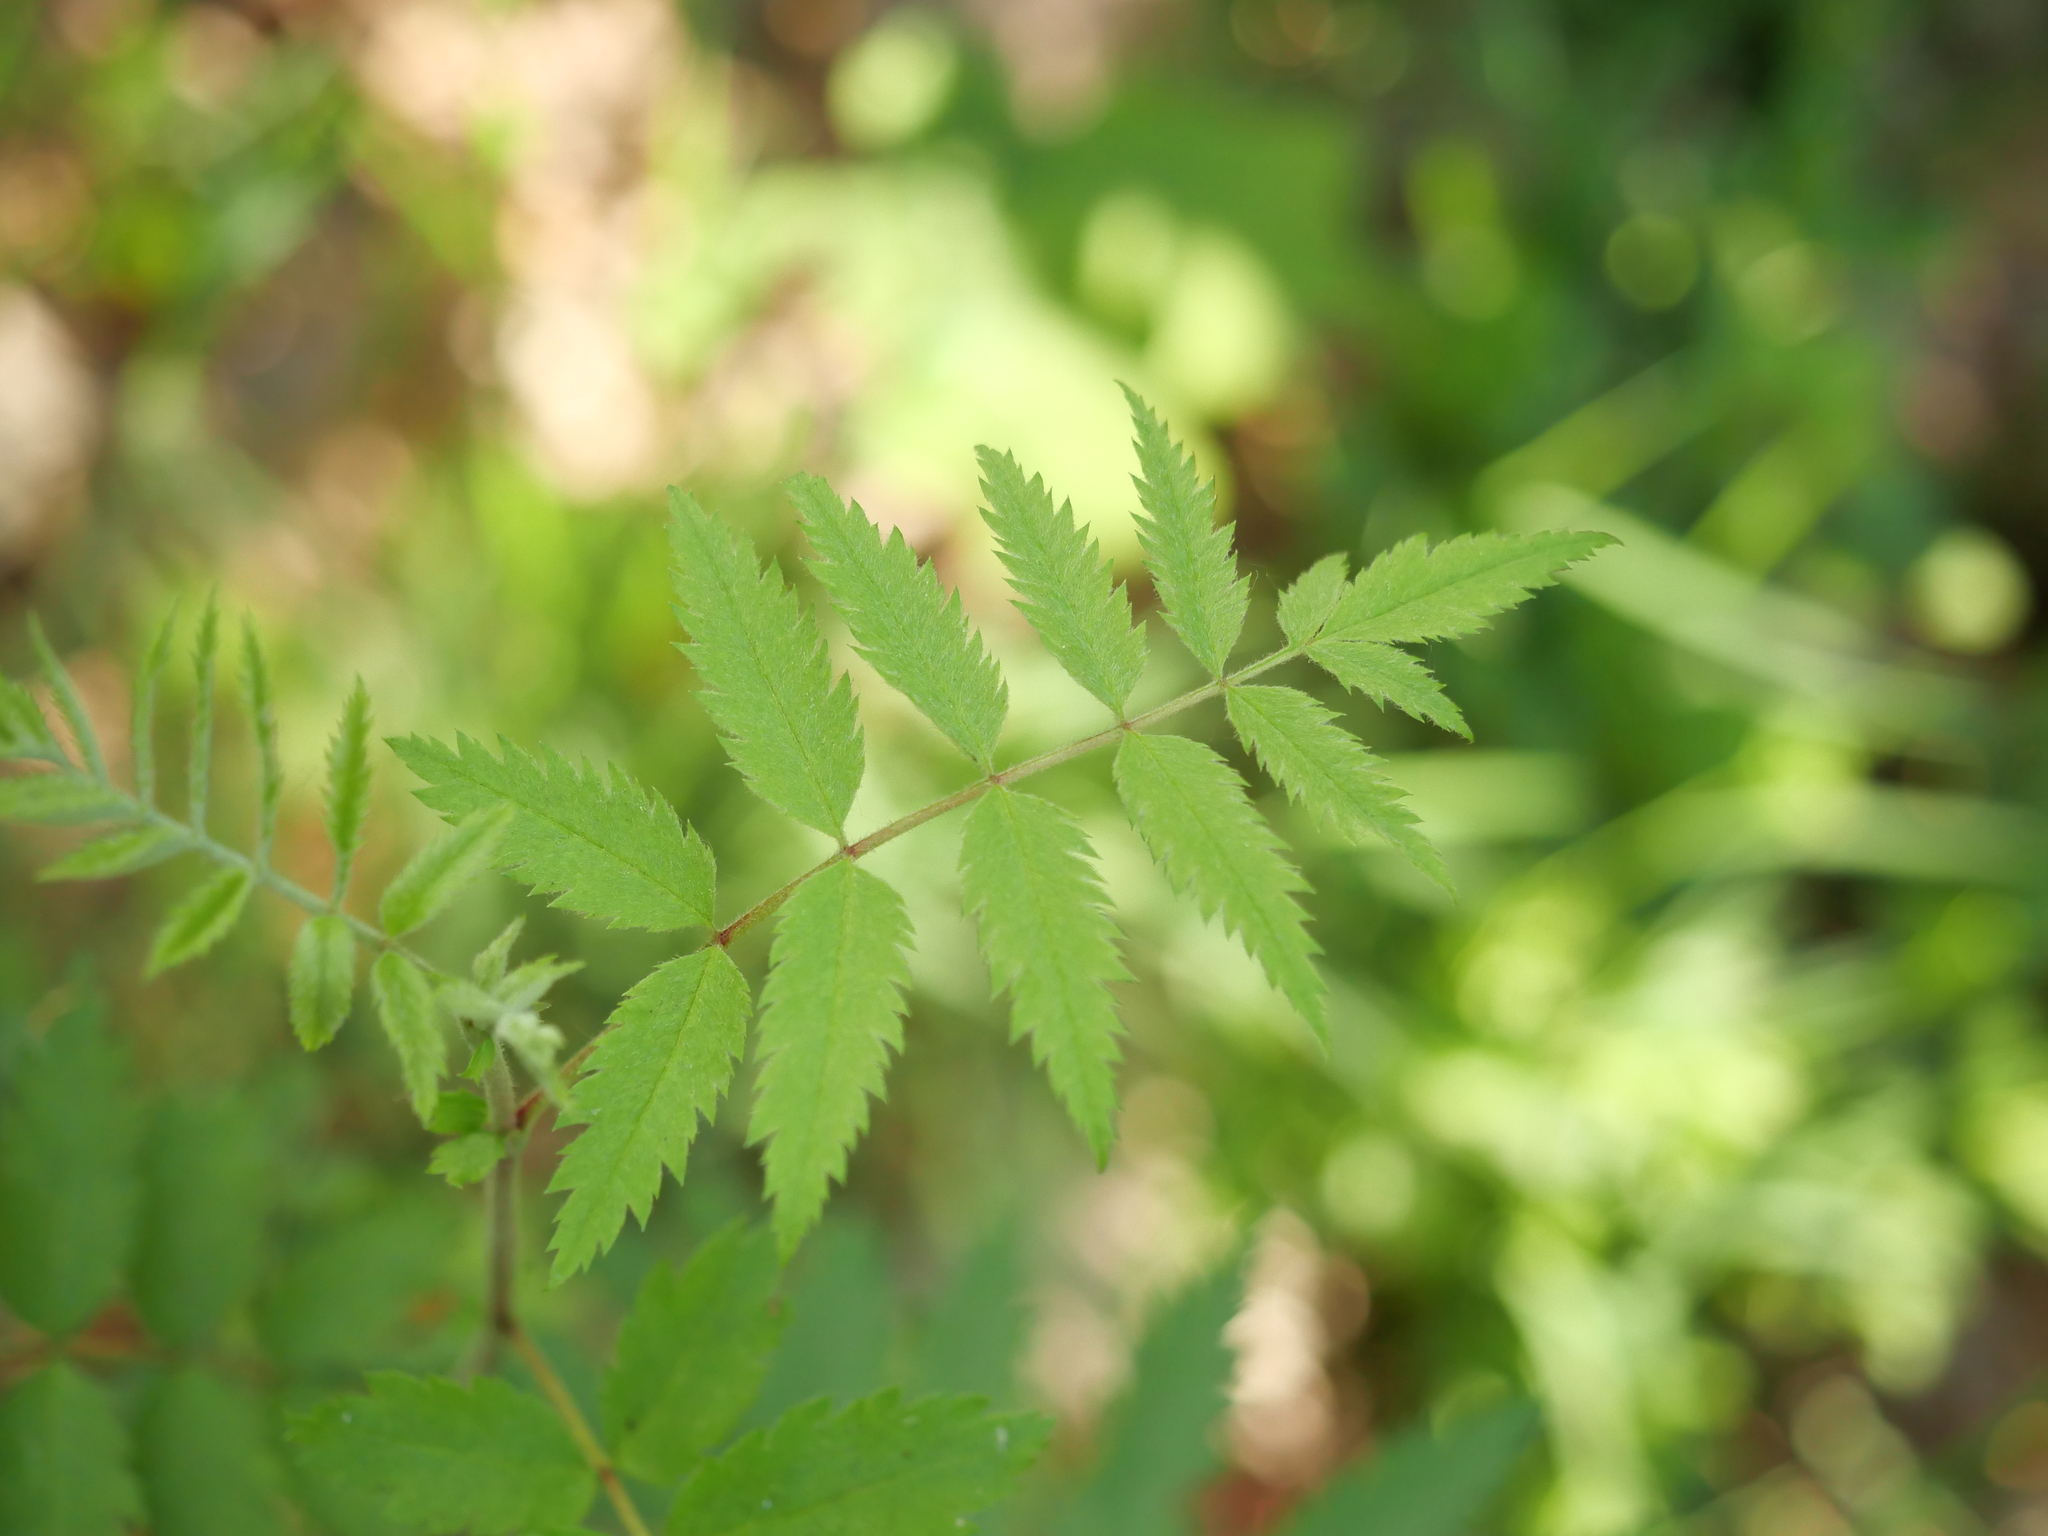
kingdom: Plantae
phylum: Tracheophyta
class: Magnoliopsida
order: Rosales
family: Rosaceae
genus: Sorbus
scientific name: Sorbus aucuparia
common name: Rowan
